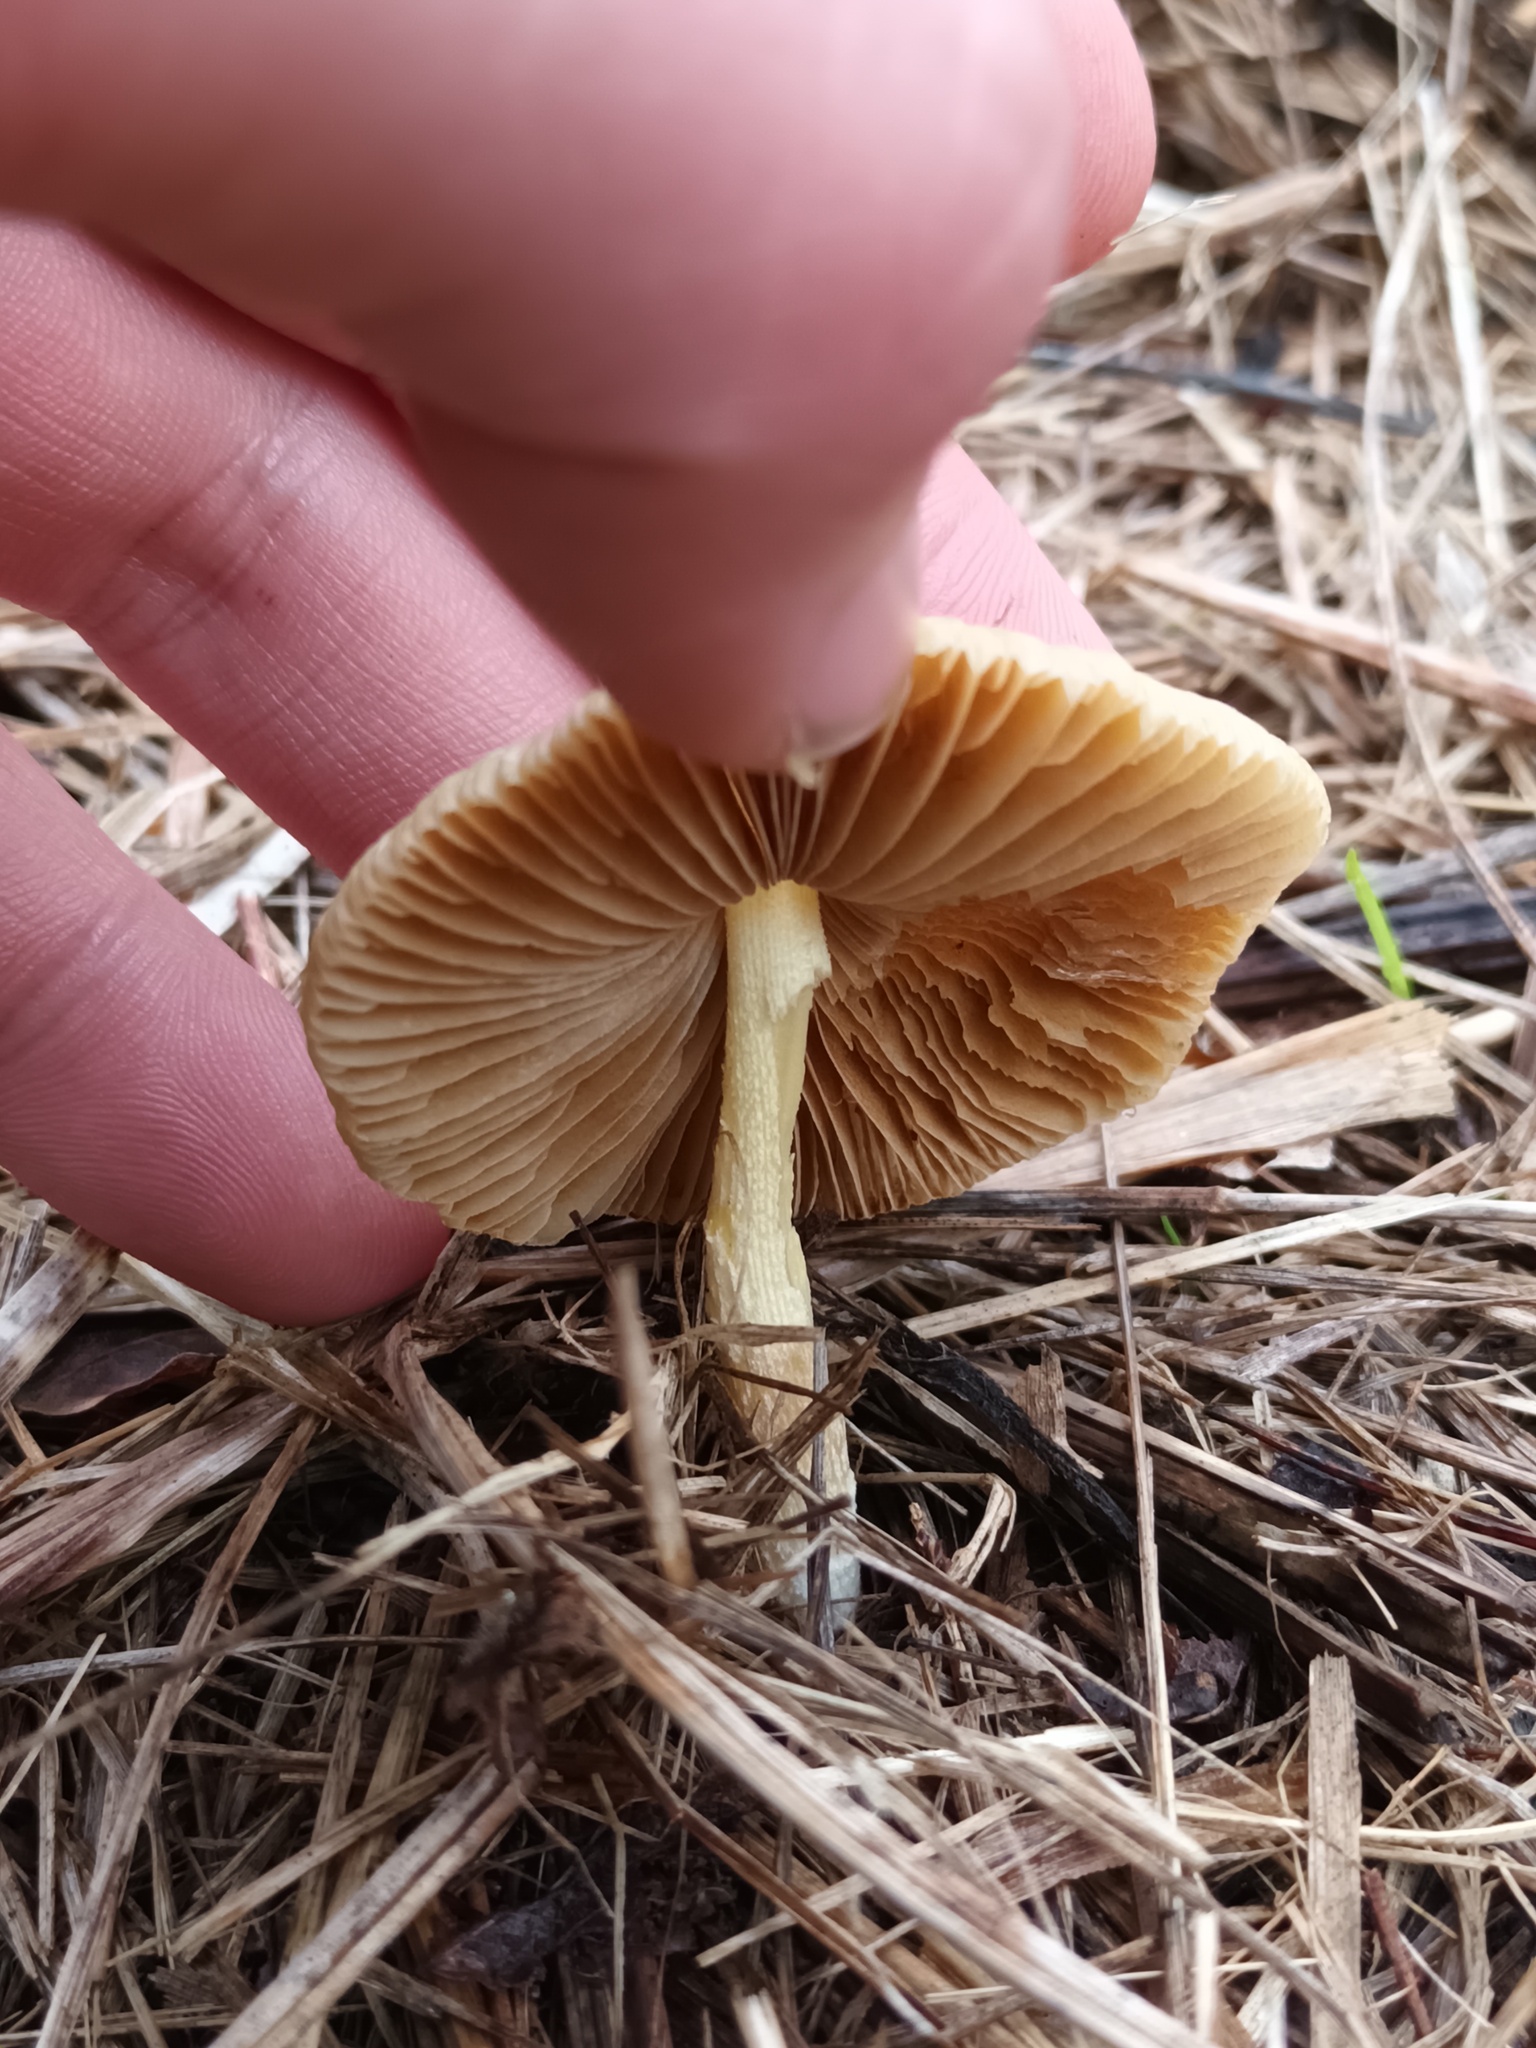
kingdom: Fungi
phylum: Basidiomycota
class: Agaricomycetes
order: Agaricales
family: Bolbitiaceae
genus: Bolbitius
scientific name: Bolbitius titubans
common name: Yellow fieldcap
